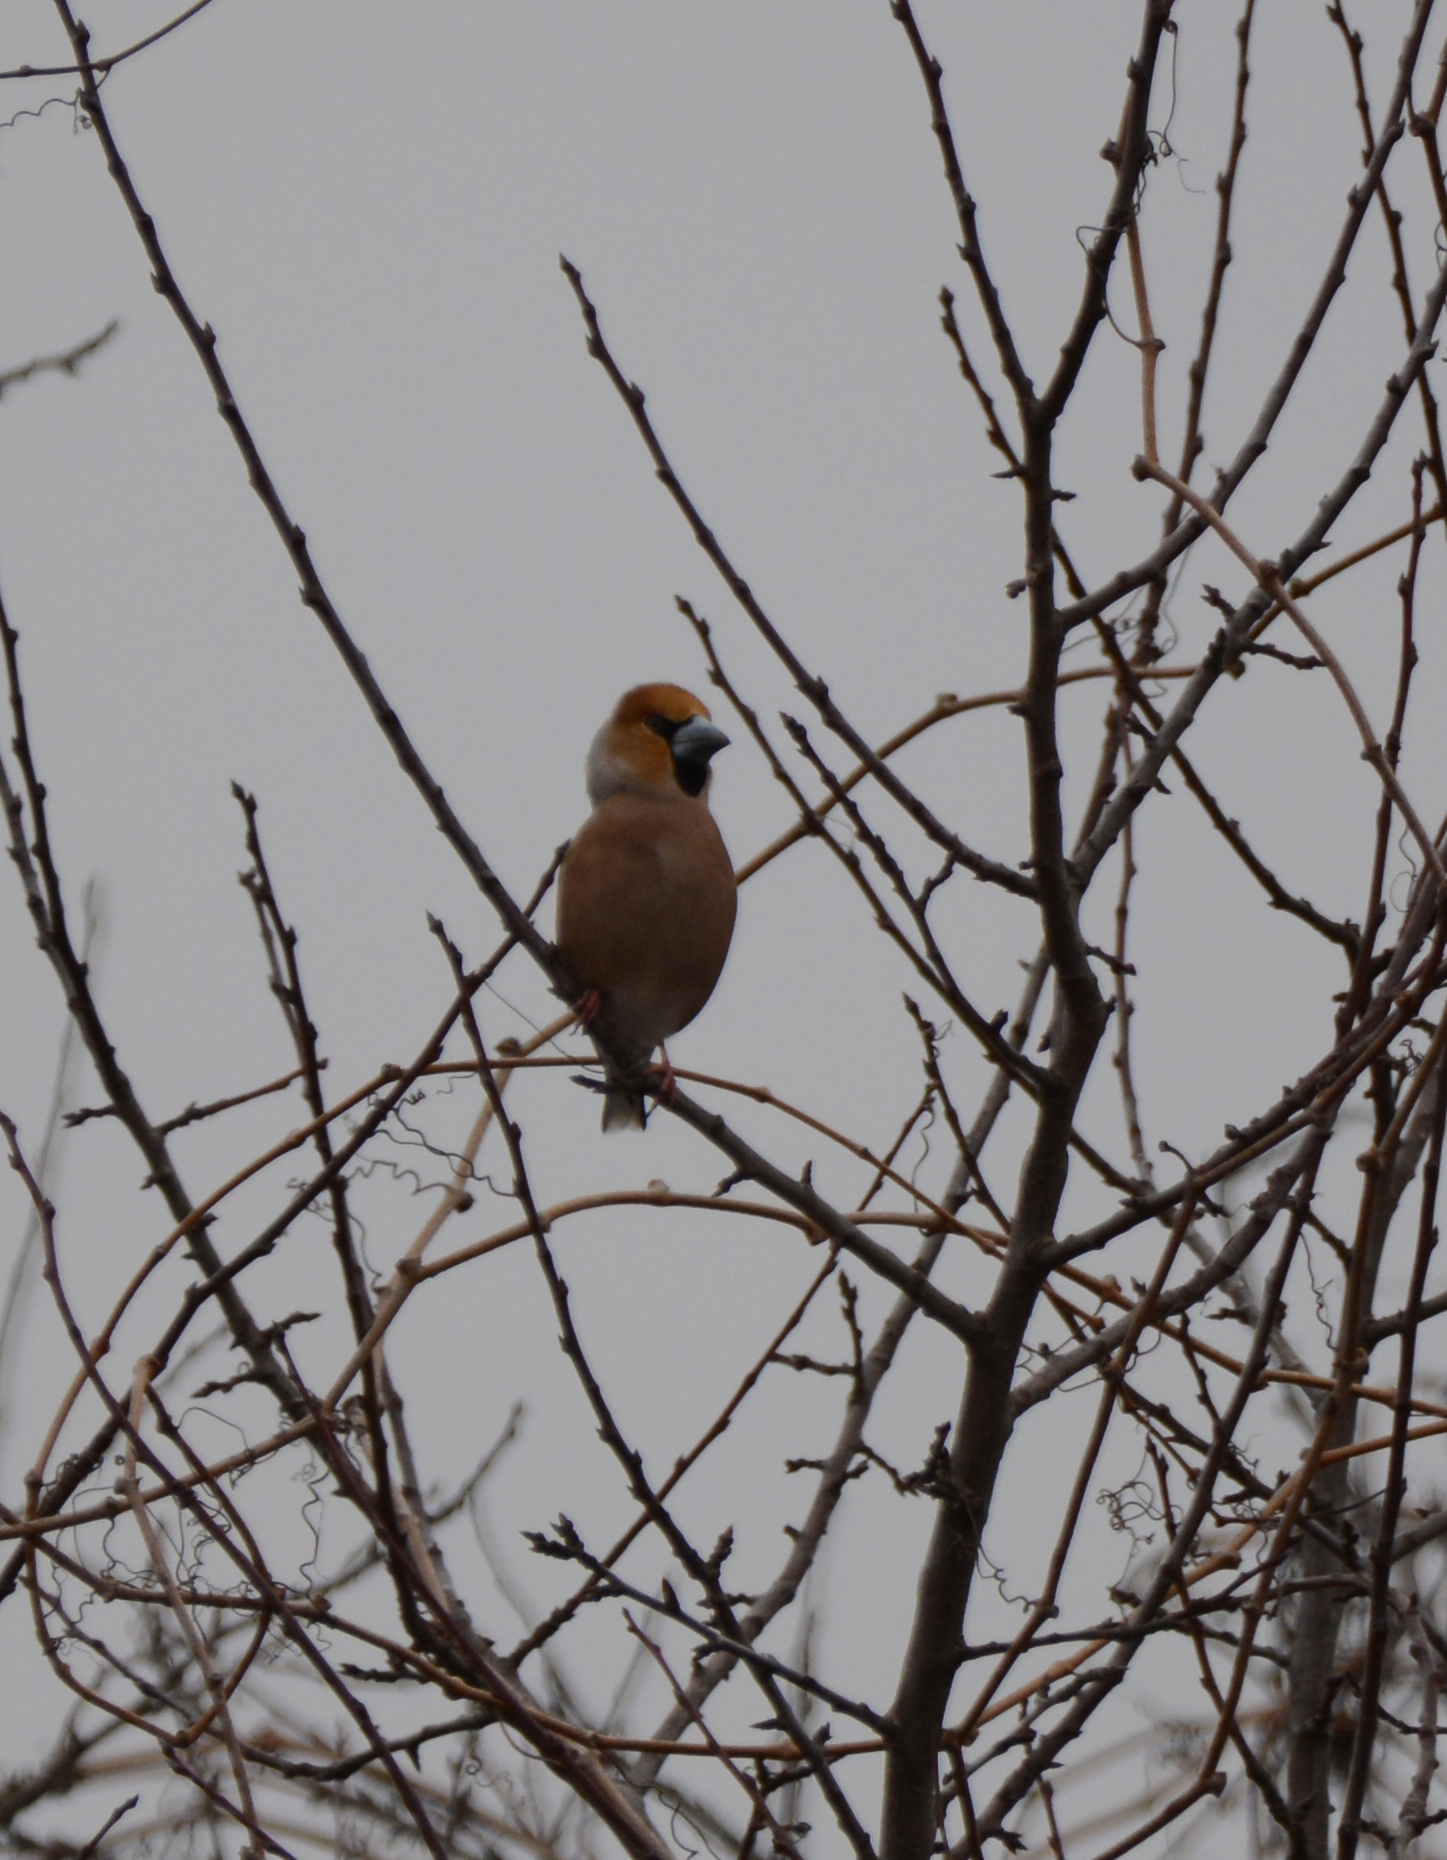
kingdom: Animalia
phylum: Chordata
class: Aves
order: Passeriformes
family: Fringillidae
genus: Coccothraustes
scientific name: Coccothraustes coccothraustes
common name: Hawfinch
